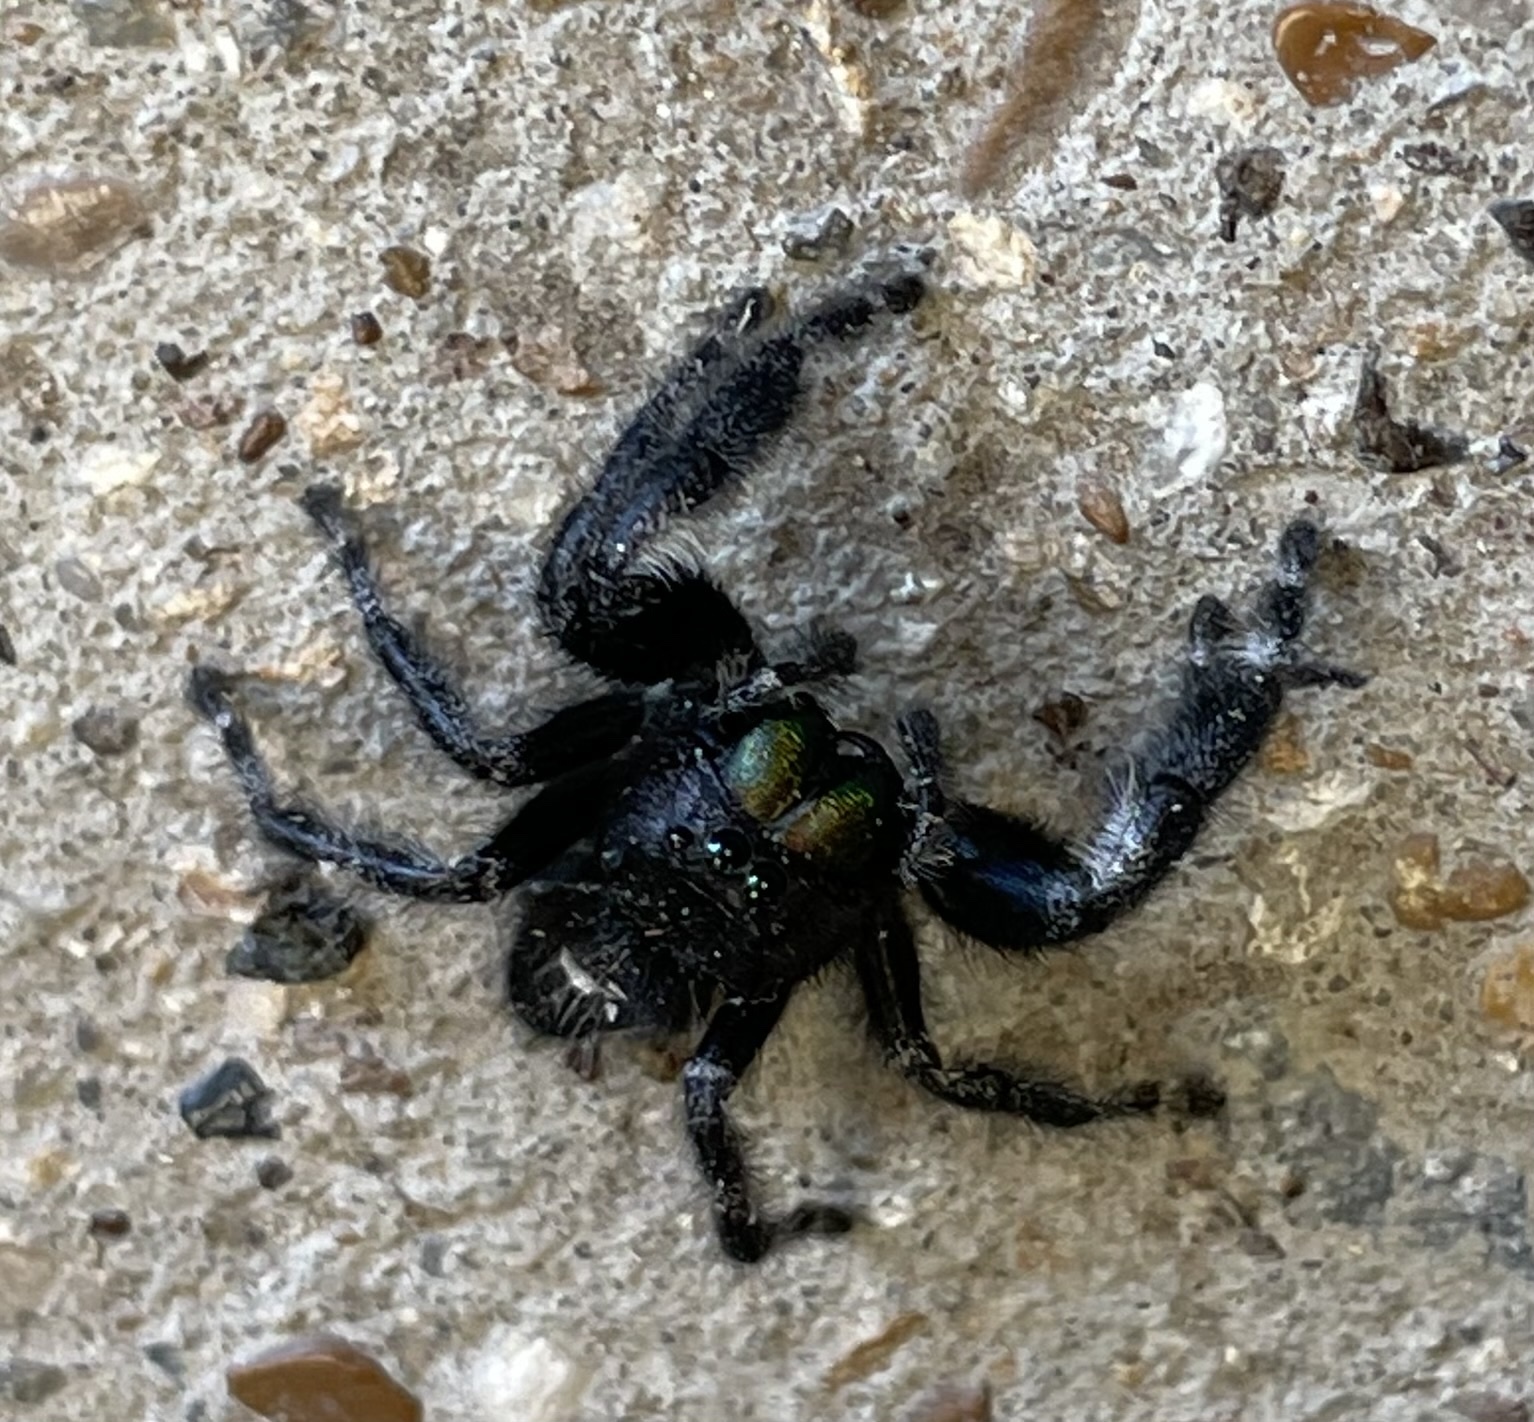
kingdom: Animalia
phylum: Arthropoda
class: Arachnida
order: Araneae
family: Salticidae
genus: Phidippus
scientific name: Phidippus audax
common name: Bold jumper
